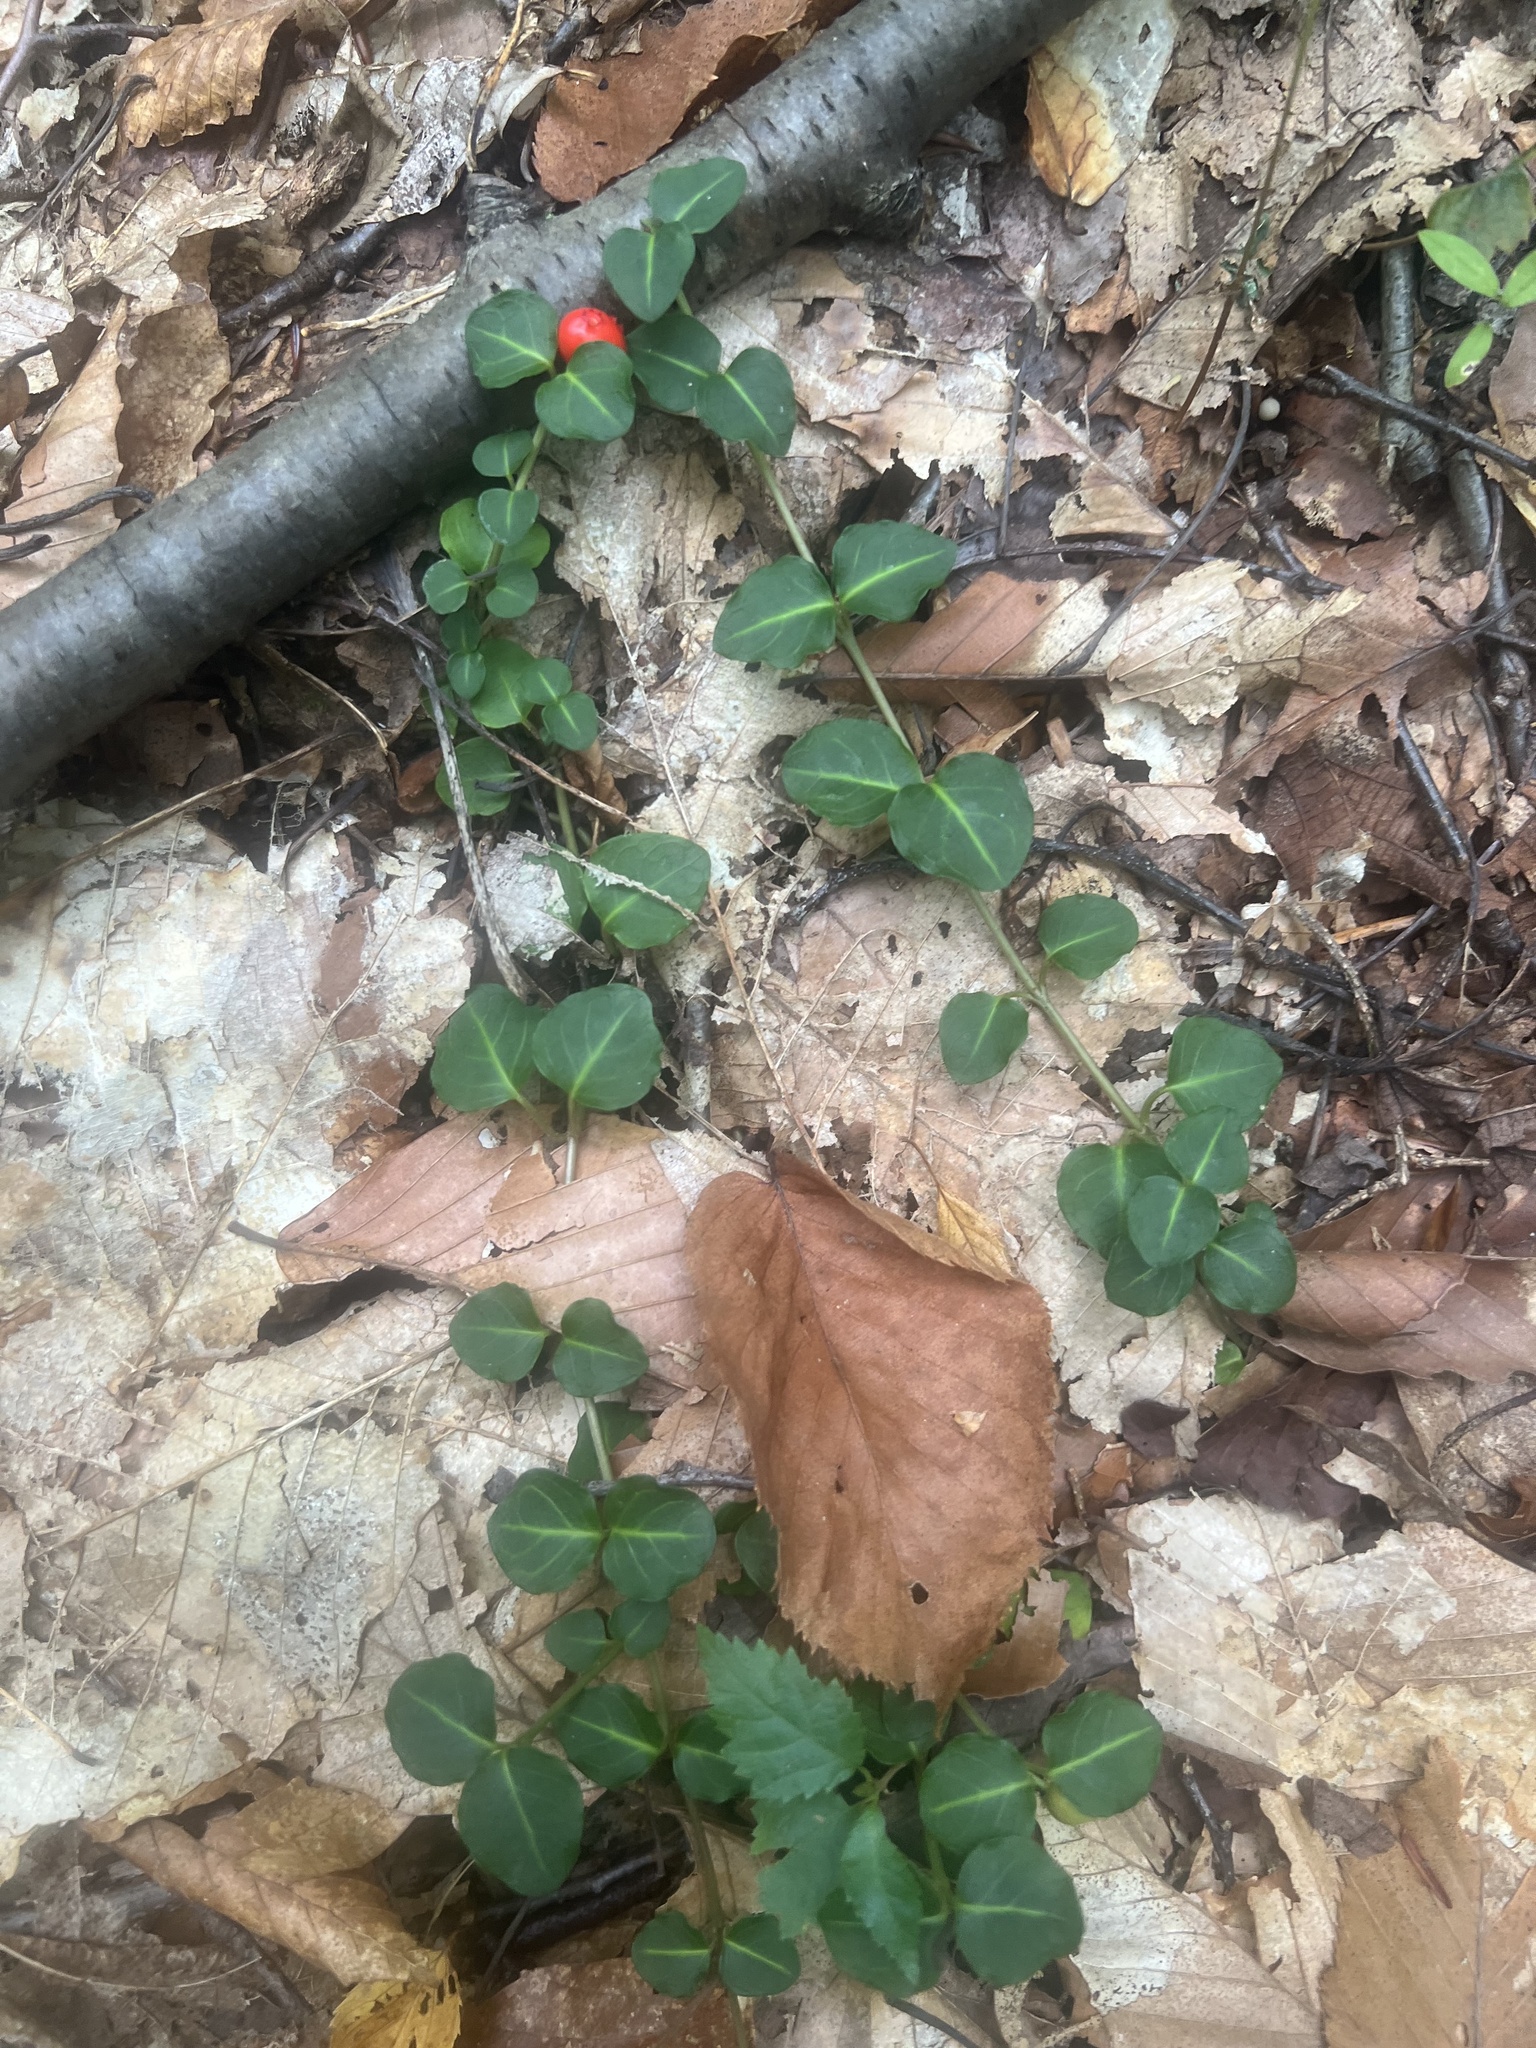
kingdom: Plantae
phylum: Tracheophyta
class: Magnoliopsida
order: Gentianales
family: Rubiaceae
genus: Mitchella
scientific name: Mitchella repens
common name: Partridge-berry
